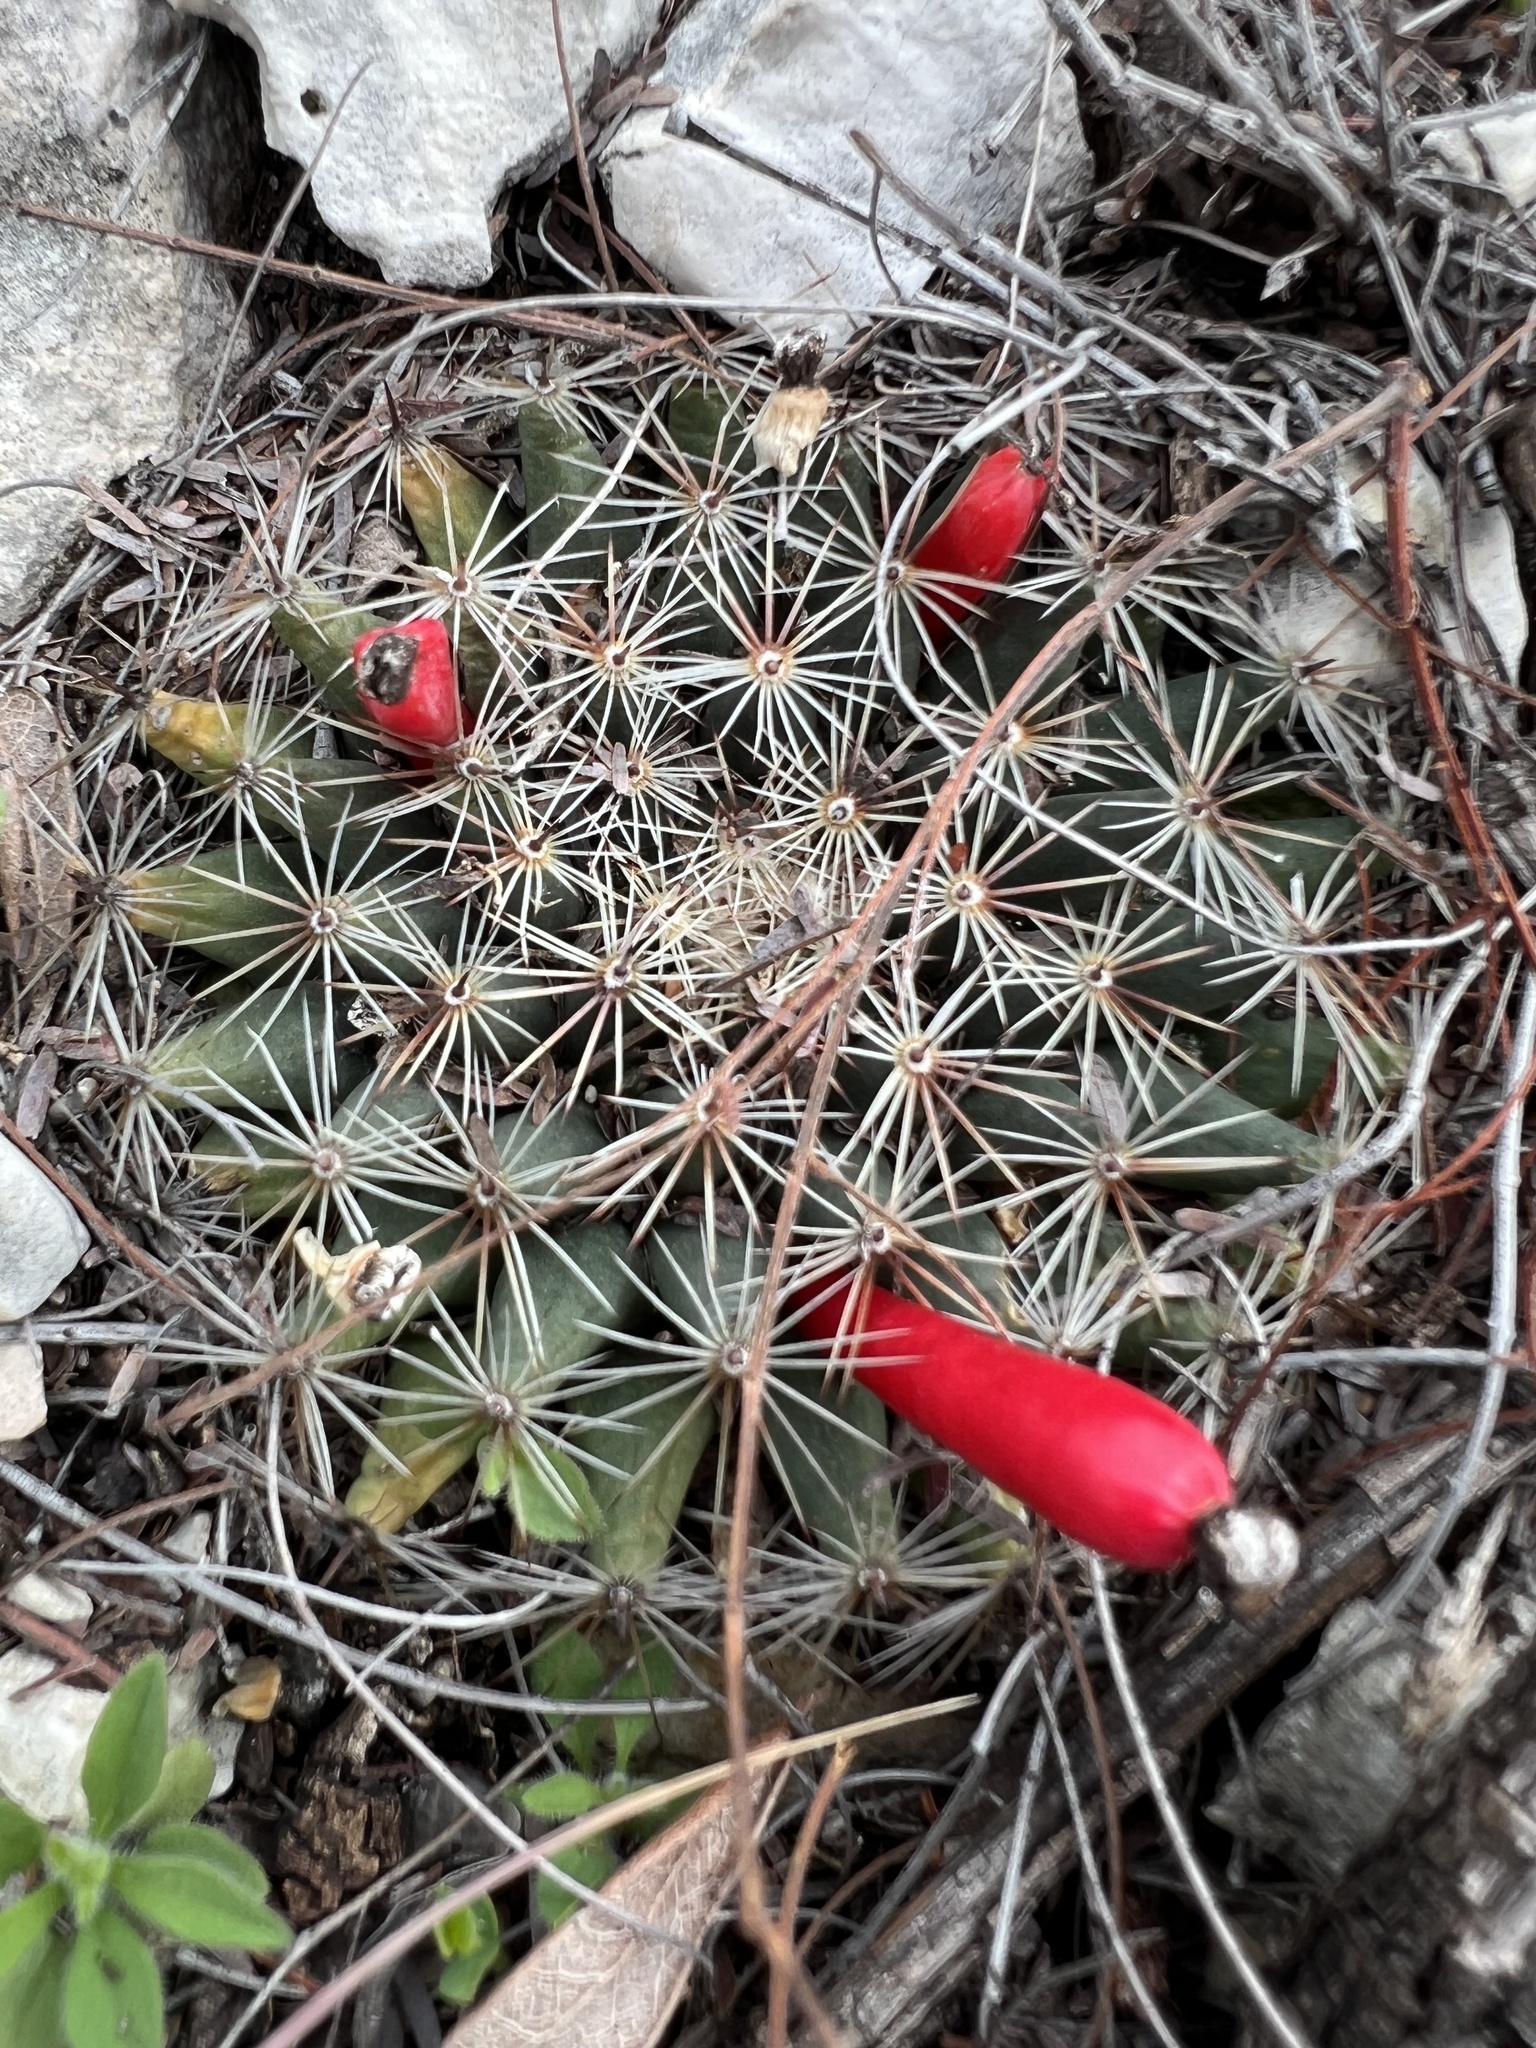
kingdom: Plantae
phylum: Tracheophyta
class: Magnoliopsida
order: Caryophyllales
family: Cactaceae
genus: Mammillaria
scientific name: Mammillaria heyderi
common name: Little nipple cactus
